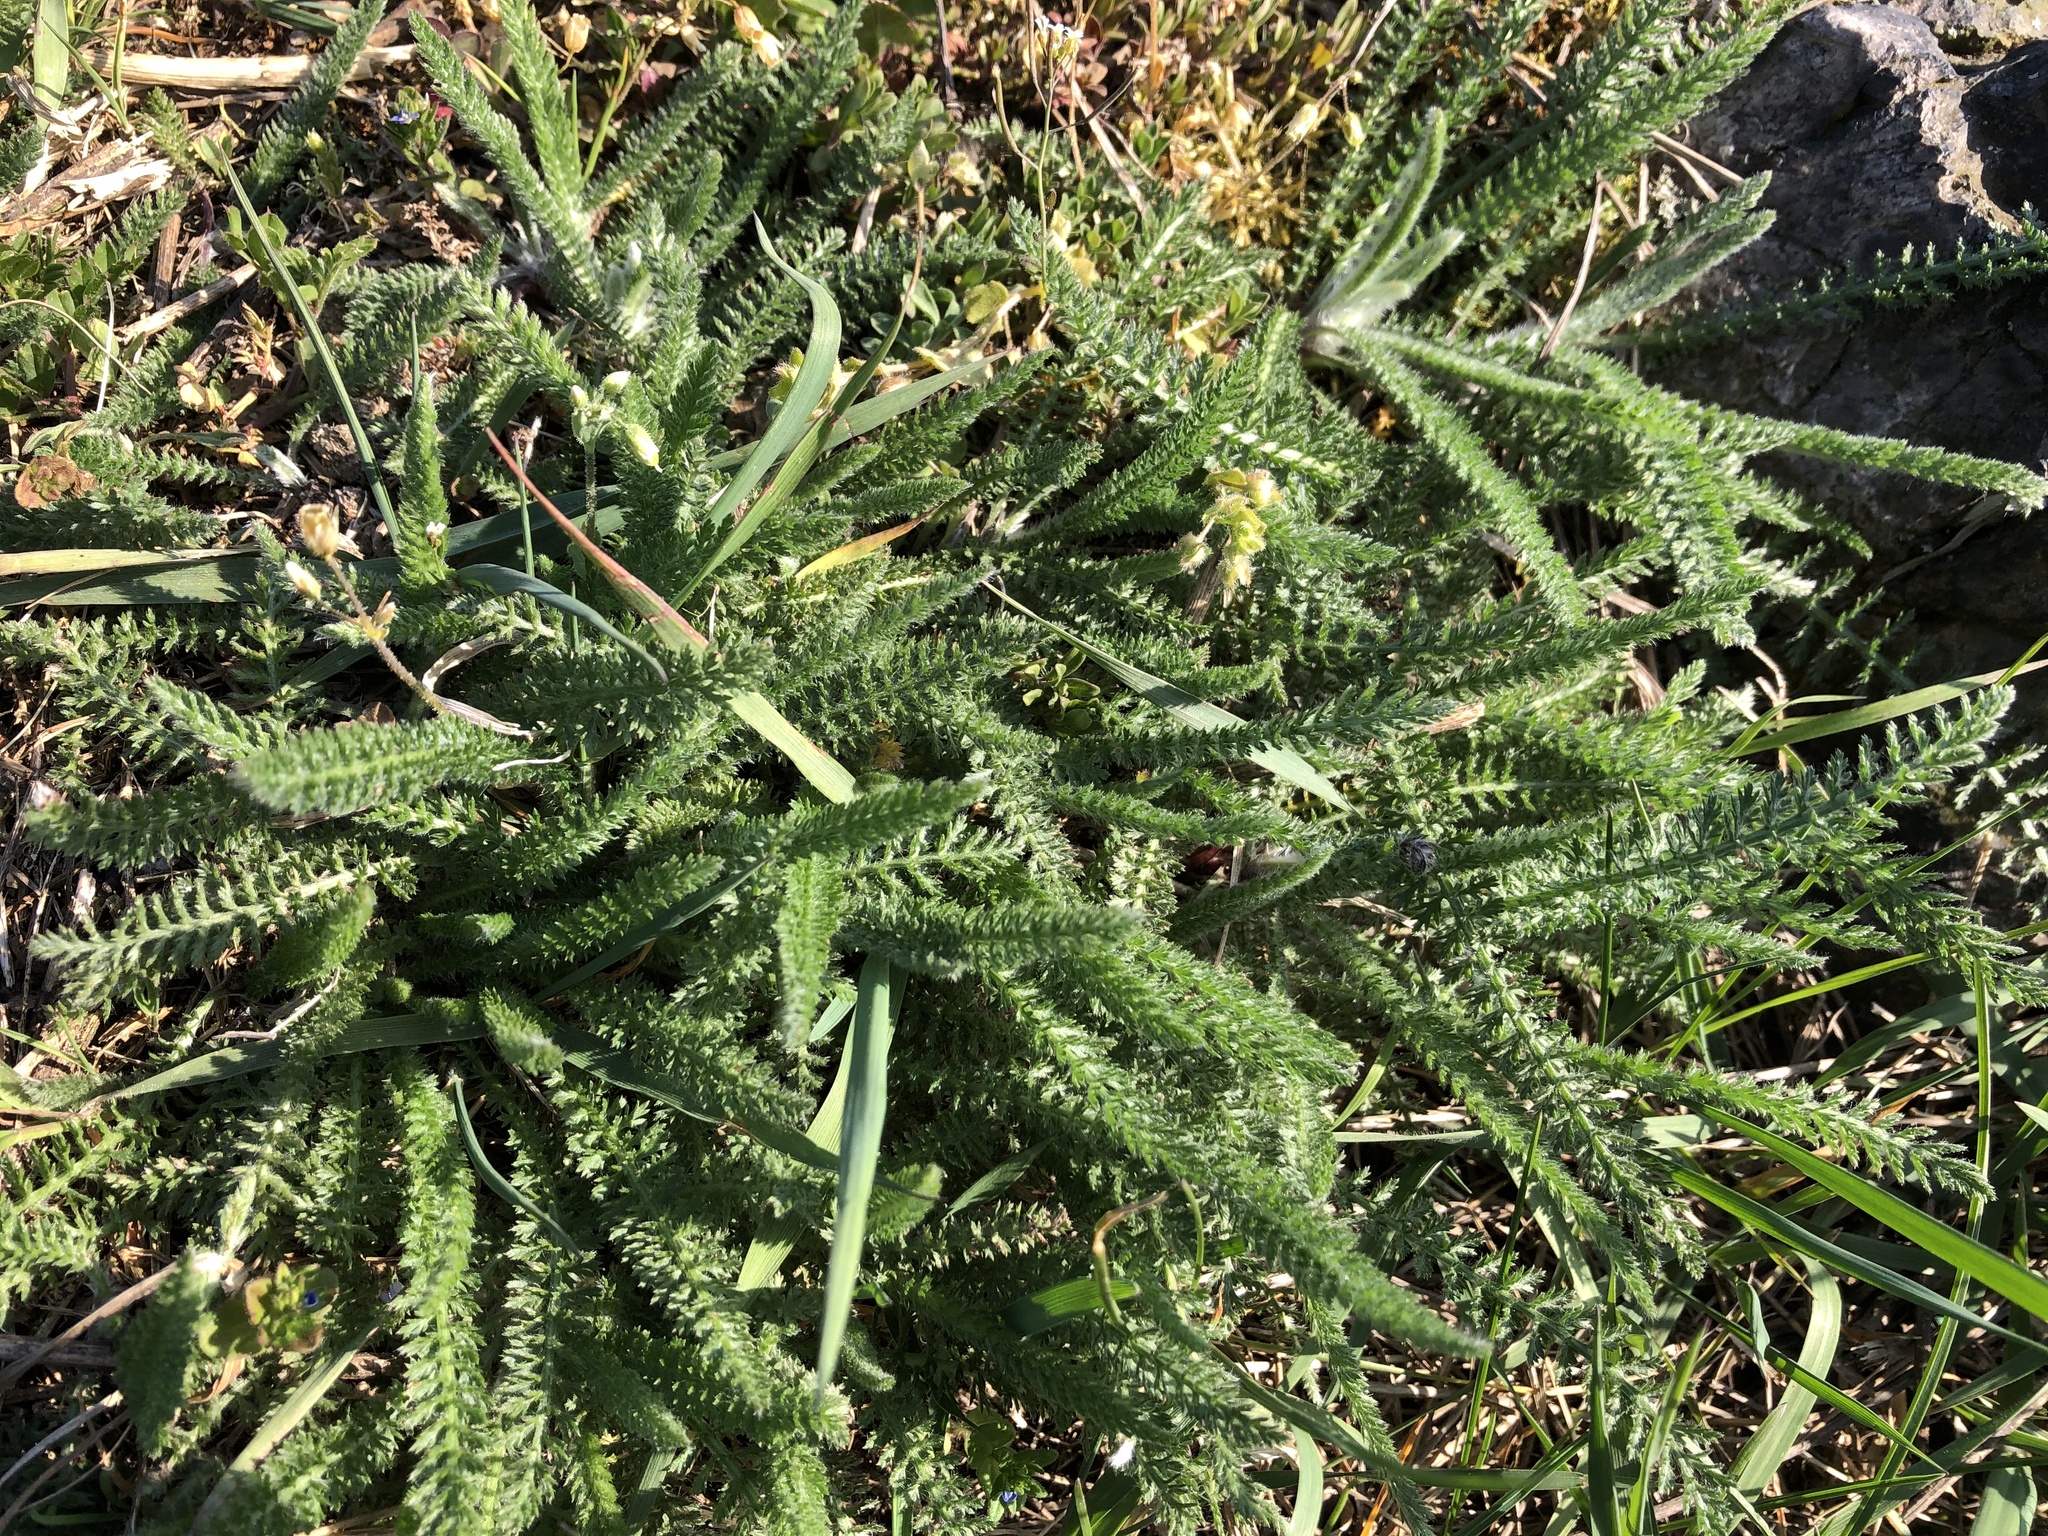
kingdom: Plantae
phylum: Tracheophyta
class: Magnoliopsida
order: Asterales
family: Asteraceae
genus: Achillea
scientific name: Achillea millefolium
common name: Yarrow
